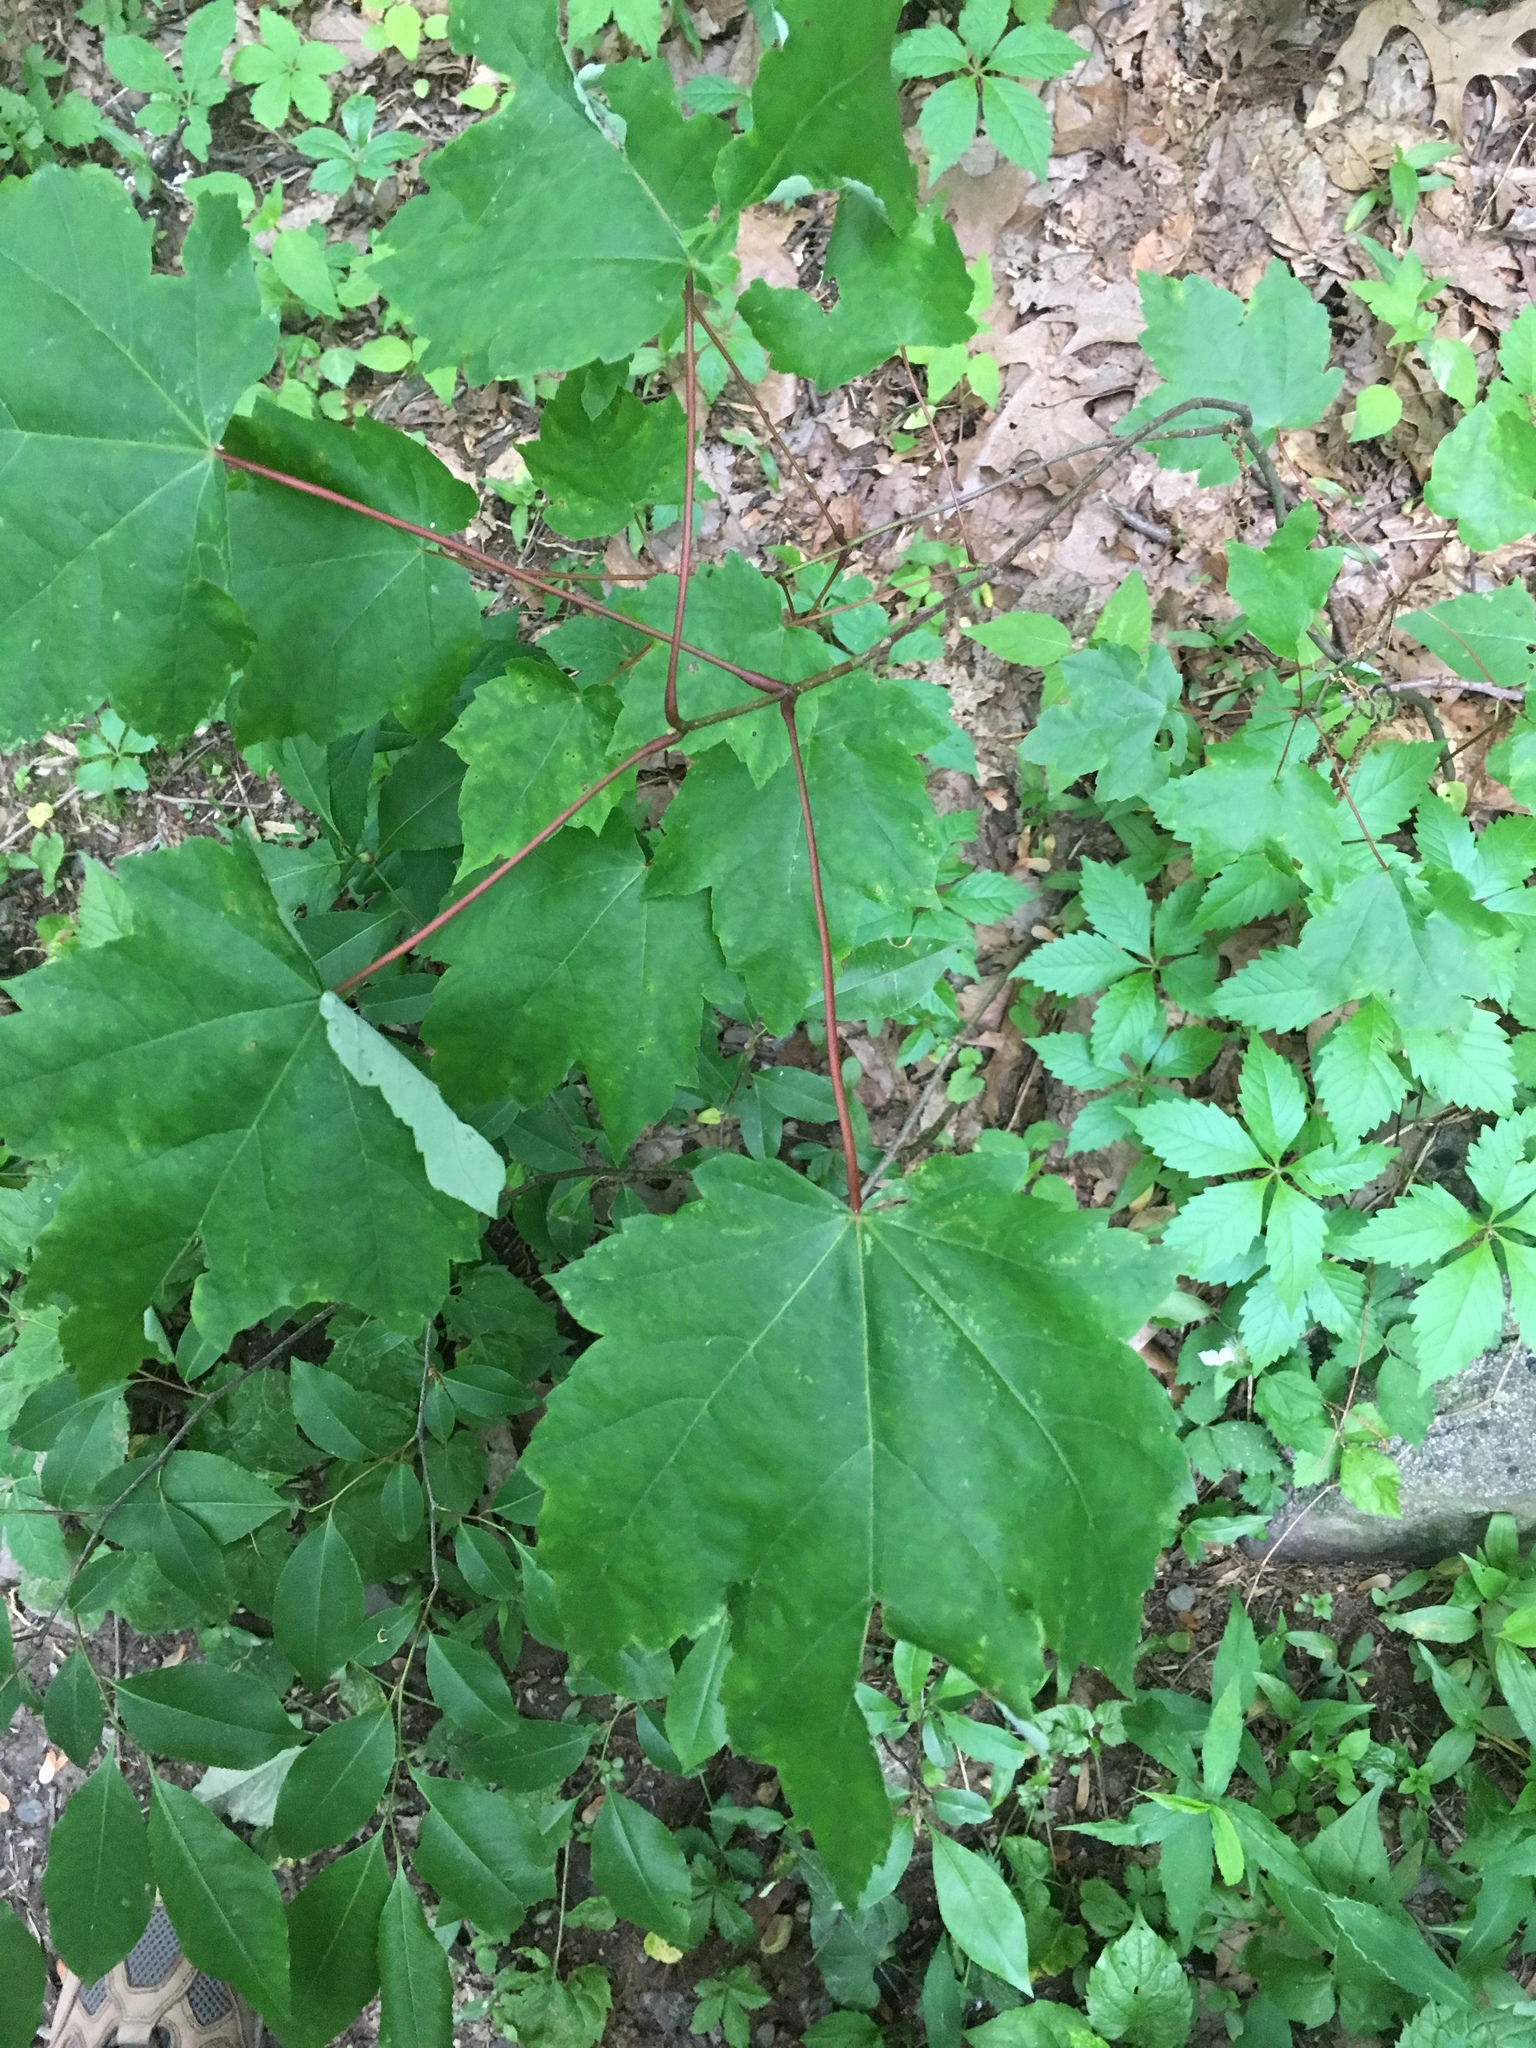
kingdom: Plantae
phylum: Tracheophyta
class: Magnoliopsida
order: Sapindales
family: Sapindaceae
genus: Acer
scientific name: Acer rubrum
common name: Red maple
